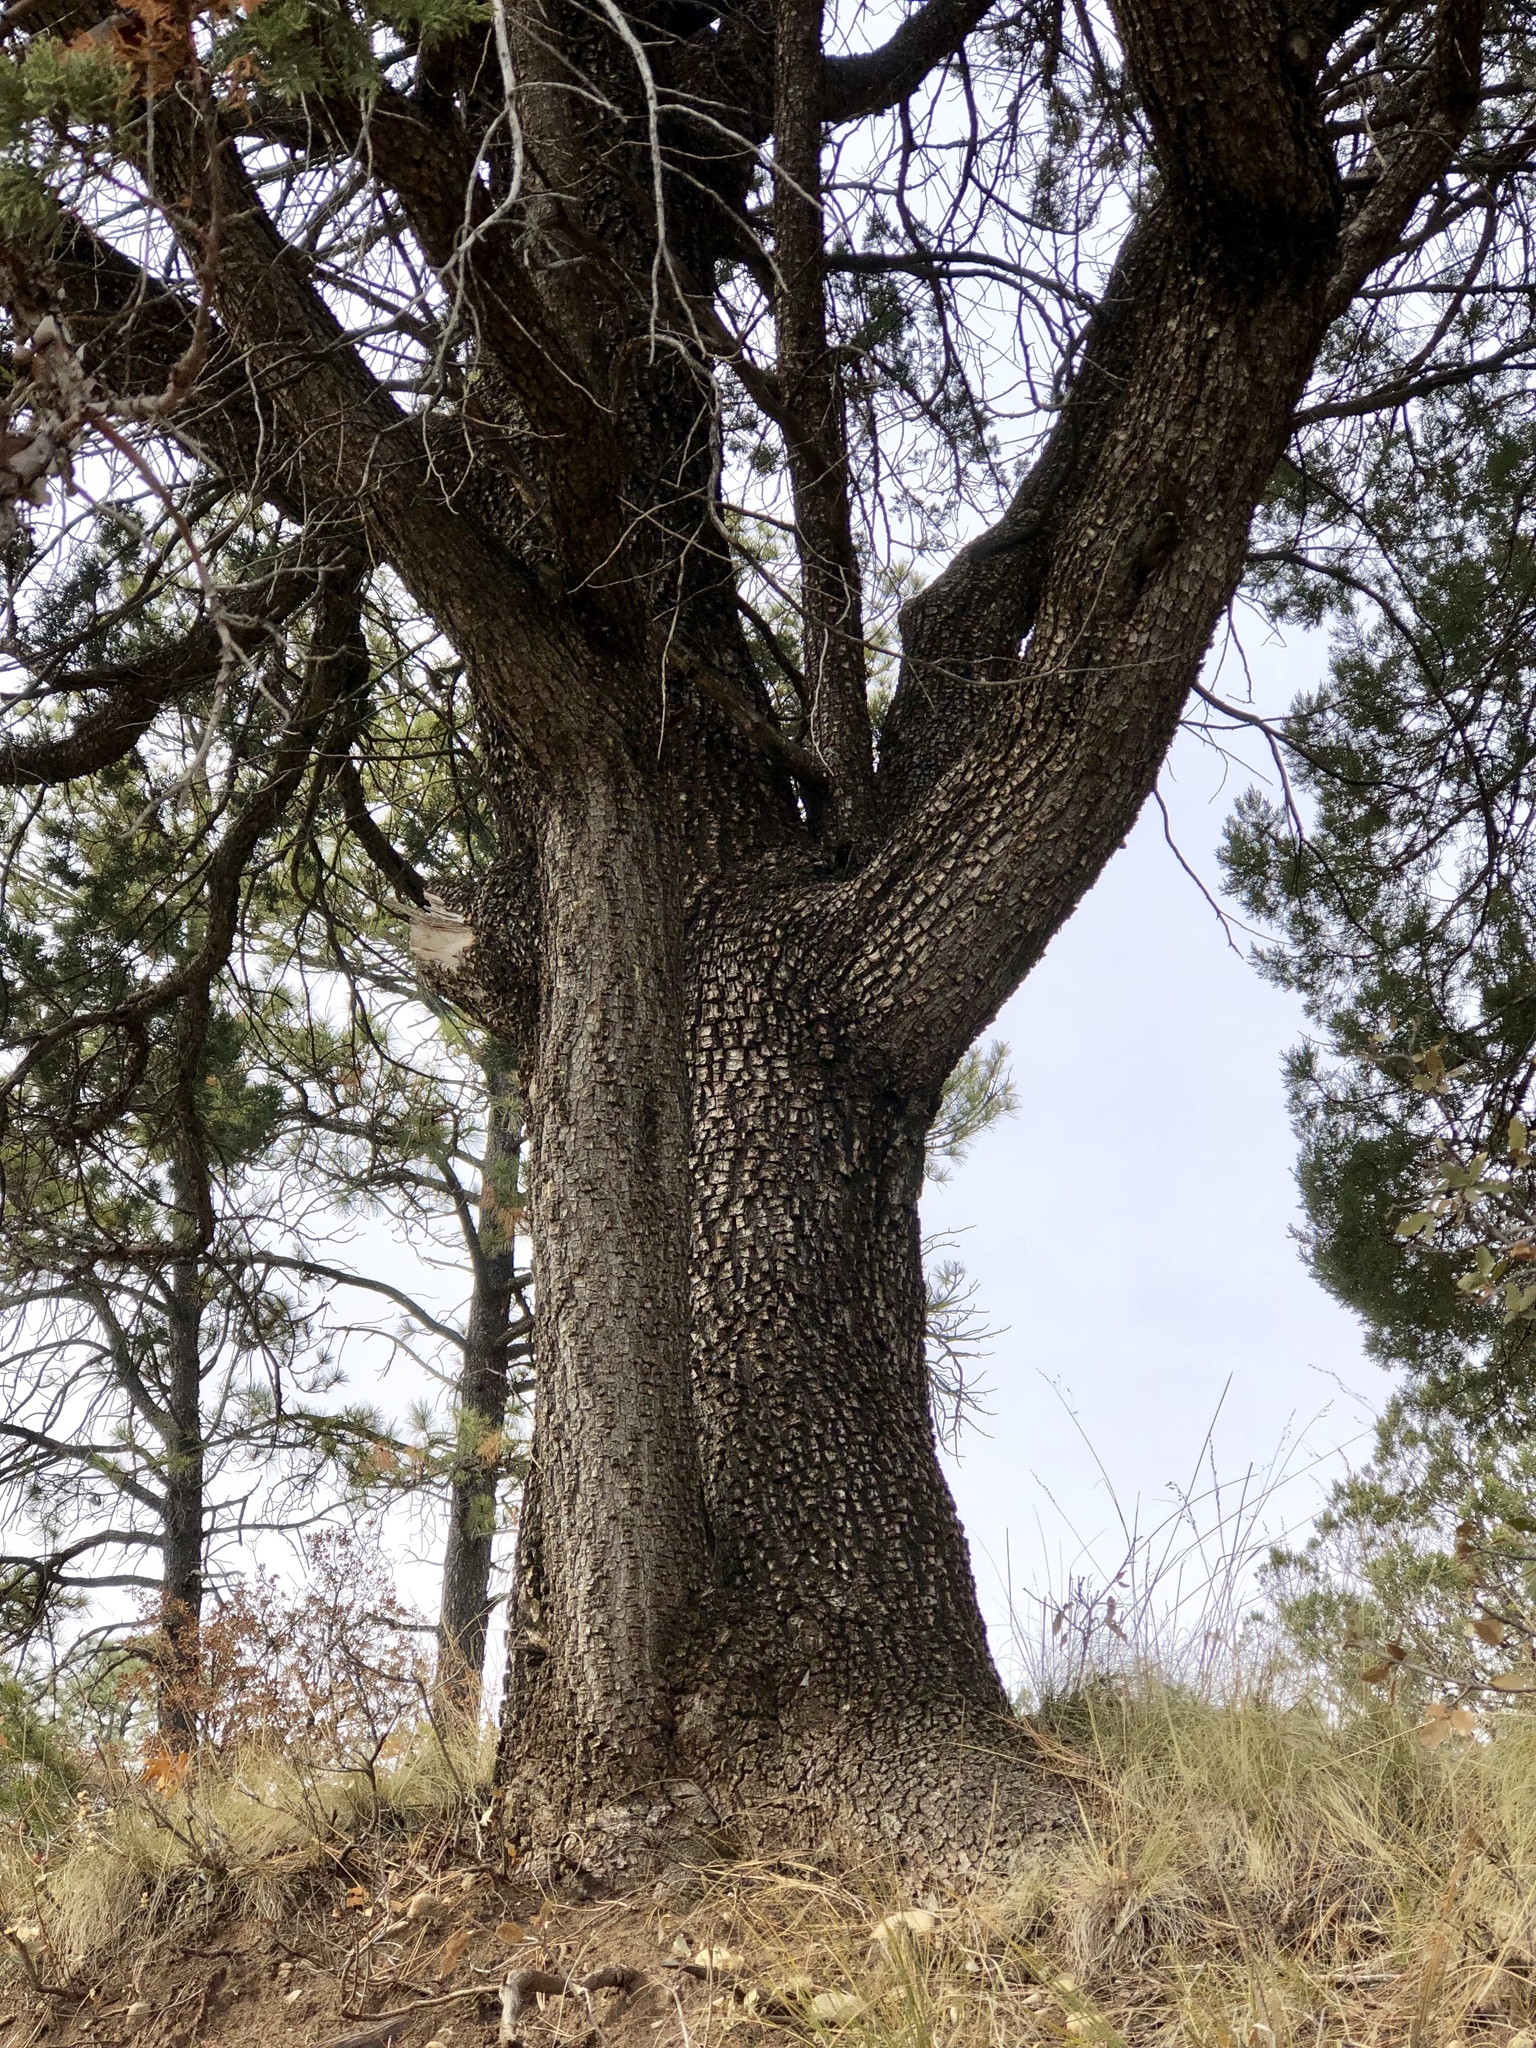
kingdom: Plantae
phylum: Tracheophyta
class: Pinopsida
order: Pinales
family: Cupressaceae
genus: Juniperus
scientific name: Juniperus deppeana
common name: Alligator juniper
